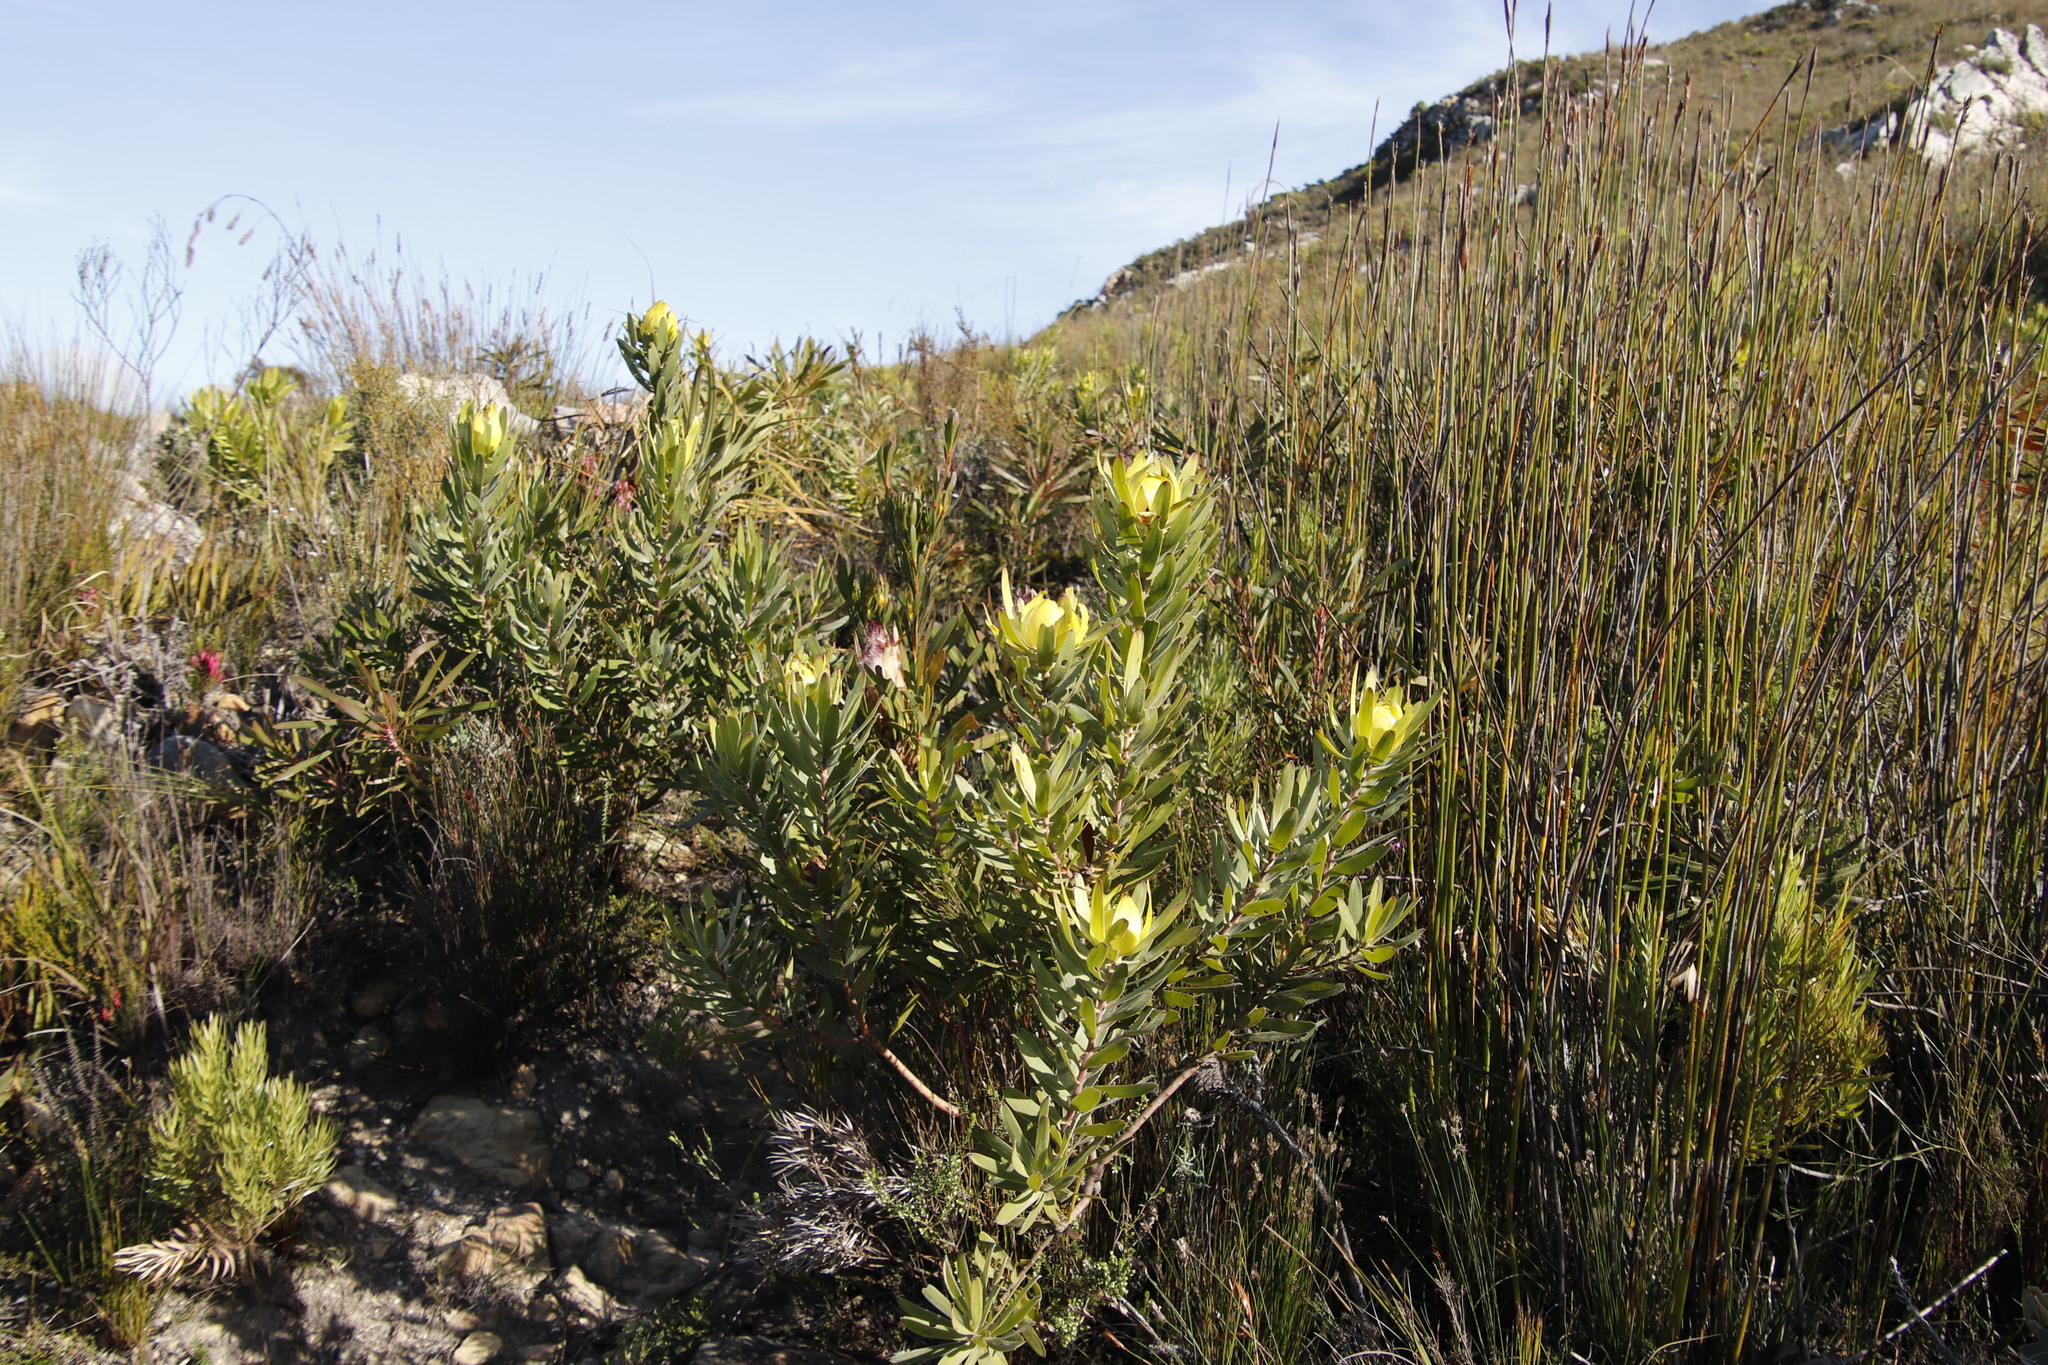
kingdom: Plantae
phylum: Tracheophyta
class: Magnoliopsida
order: Proteales
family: Proteaceae
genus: Leucadendron
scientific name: Leucadendron laureolum
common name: Golden sunshinebush
